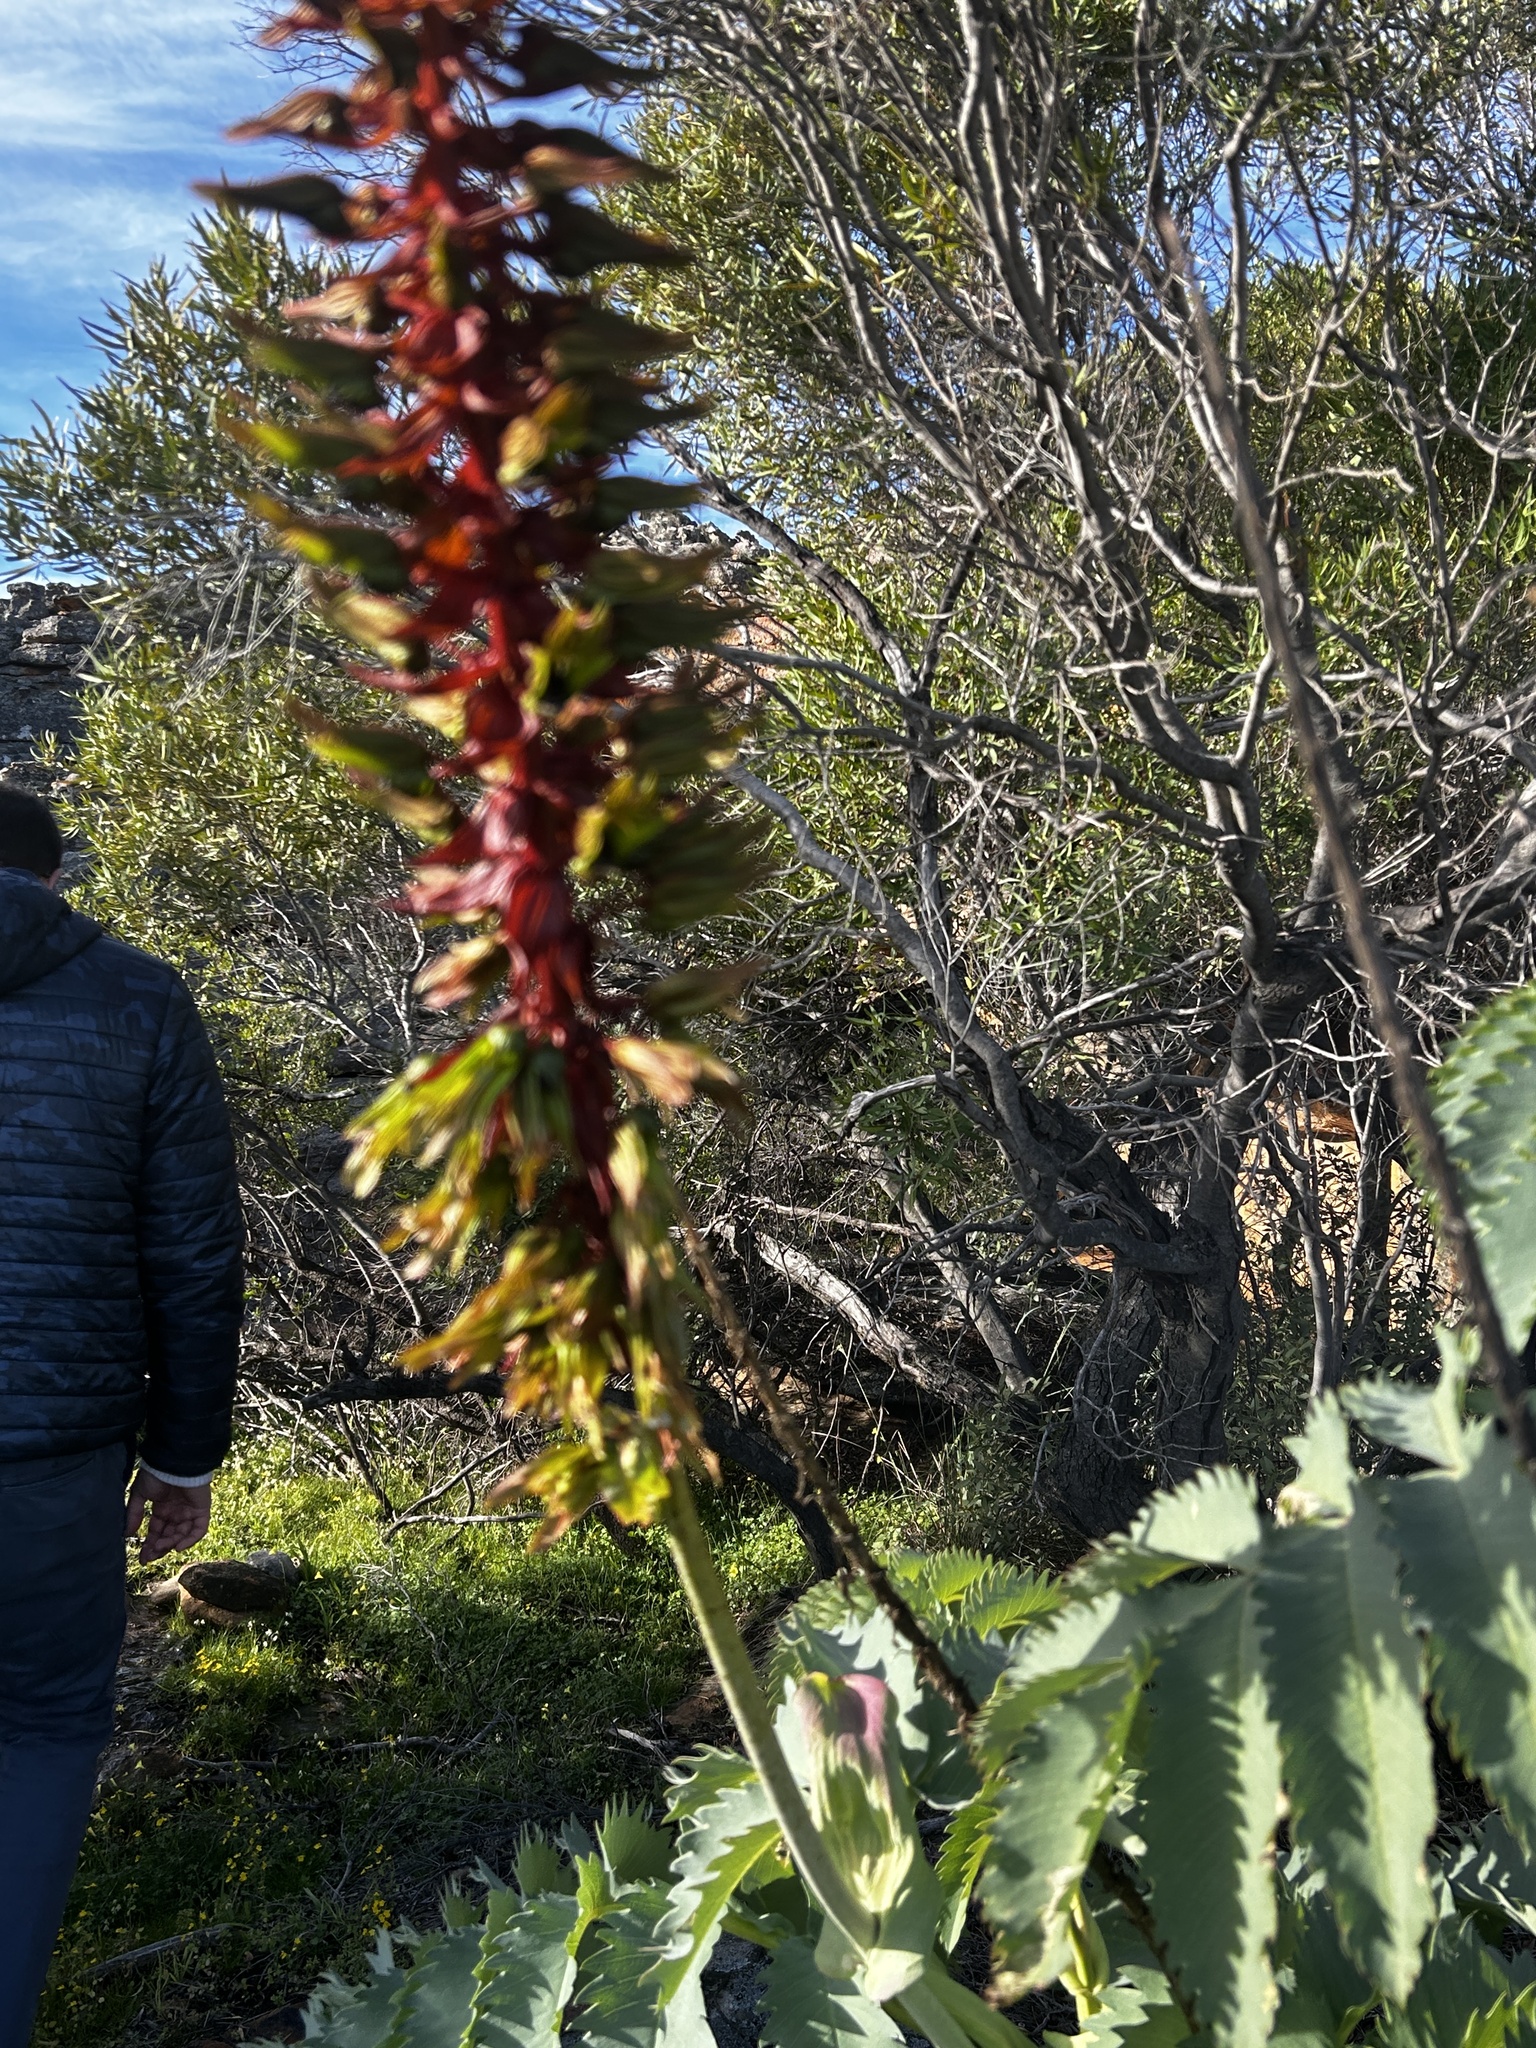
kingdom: Plantae
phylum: Tracheophyta
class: Magnoliopsida
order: Geraniales
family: Melianthaceae
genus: Melianthus
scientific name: Melianthus major
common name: Honey-flower
